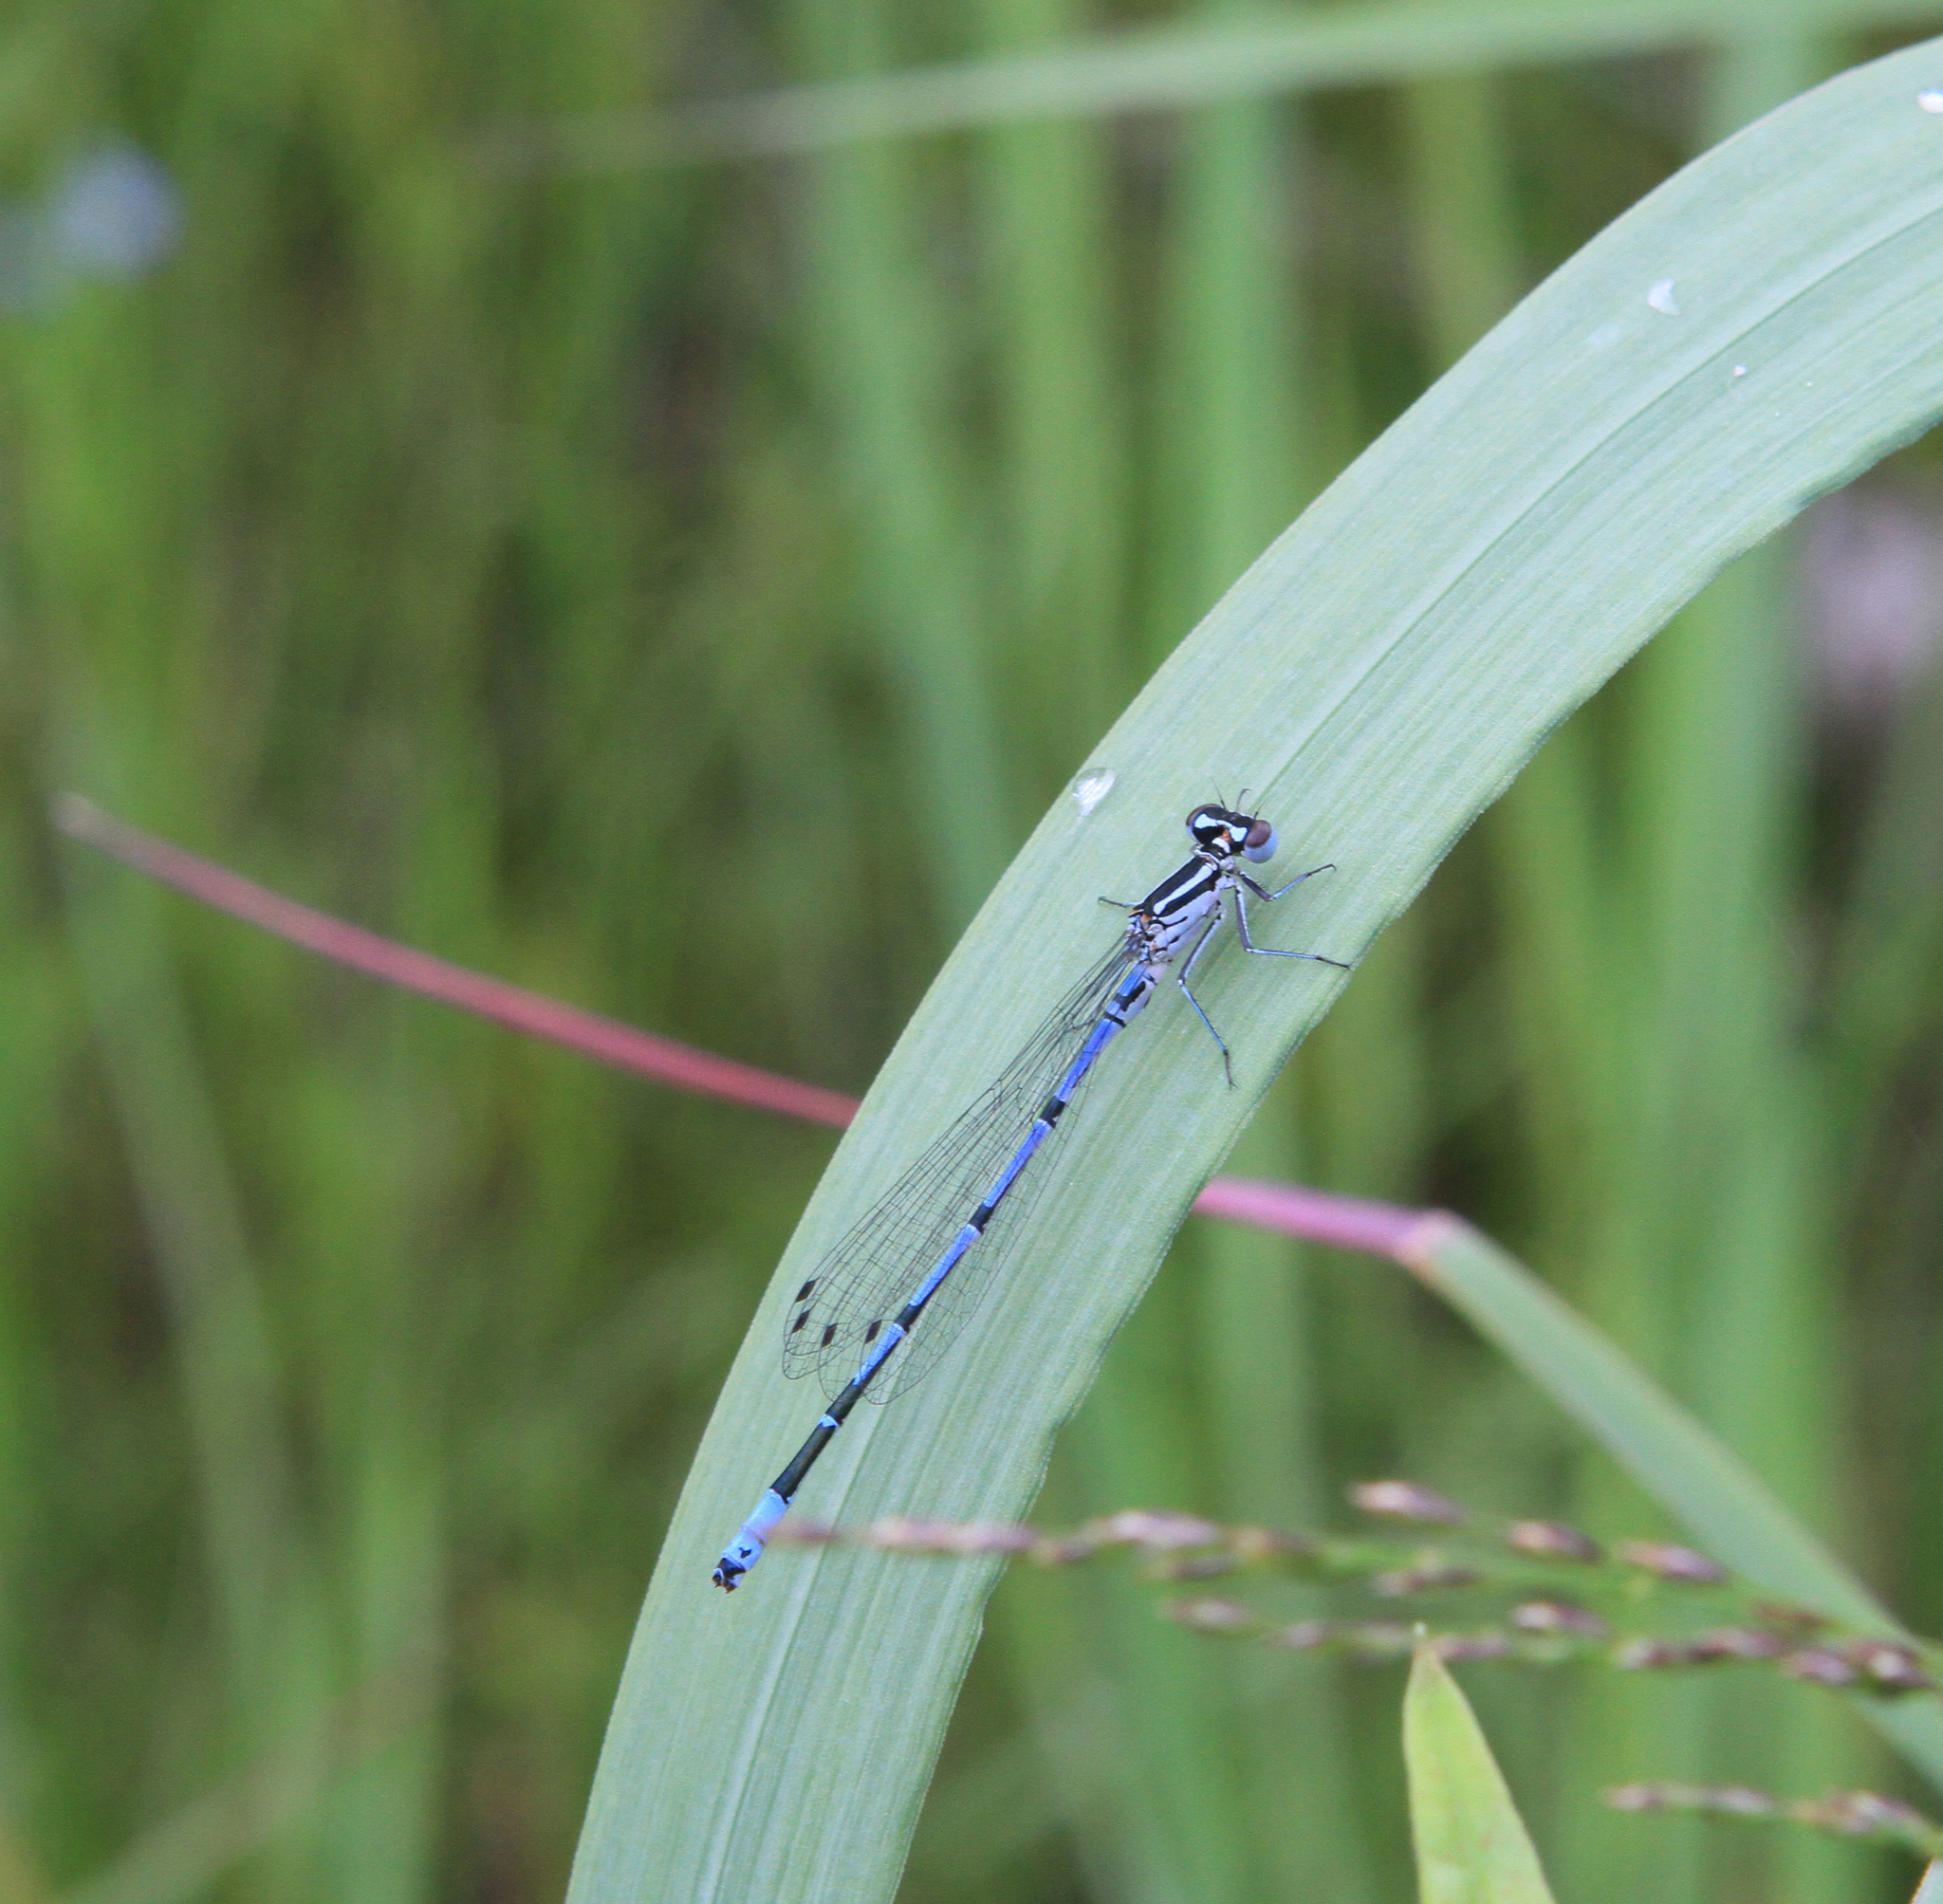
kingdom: Animalia
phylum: Arthropoda
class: Insecta
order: Odonata
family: Coenagrionidae
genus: Coenagrion
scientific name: Coenagrion puella
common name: Azure damselfly
